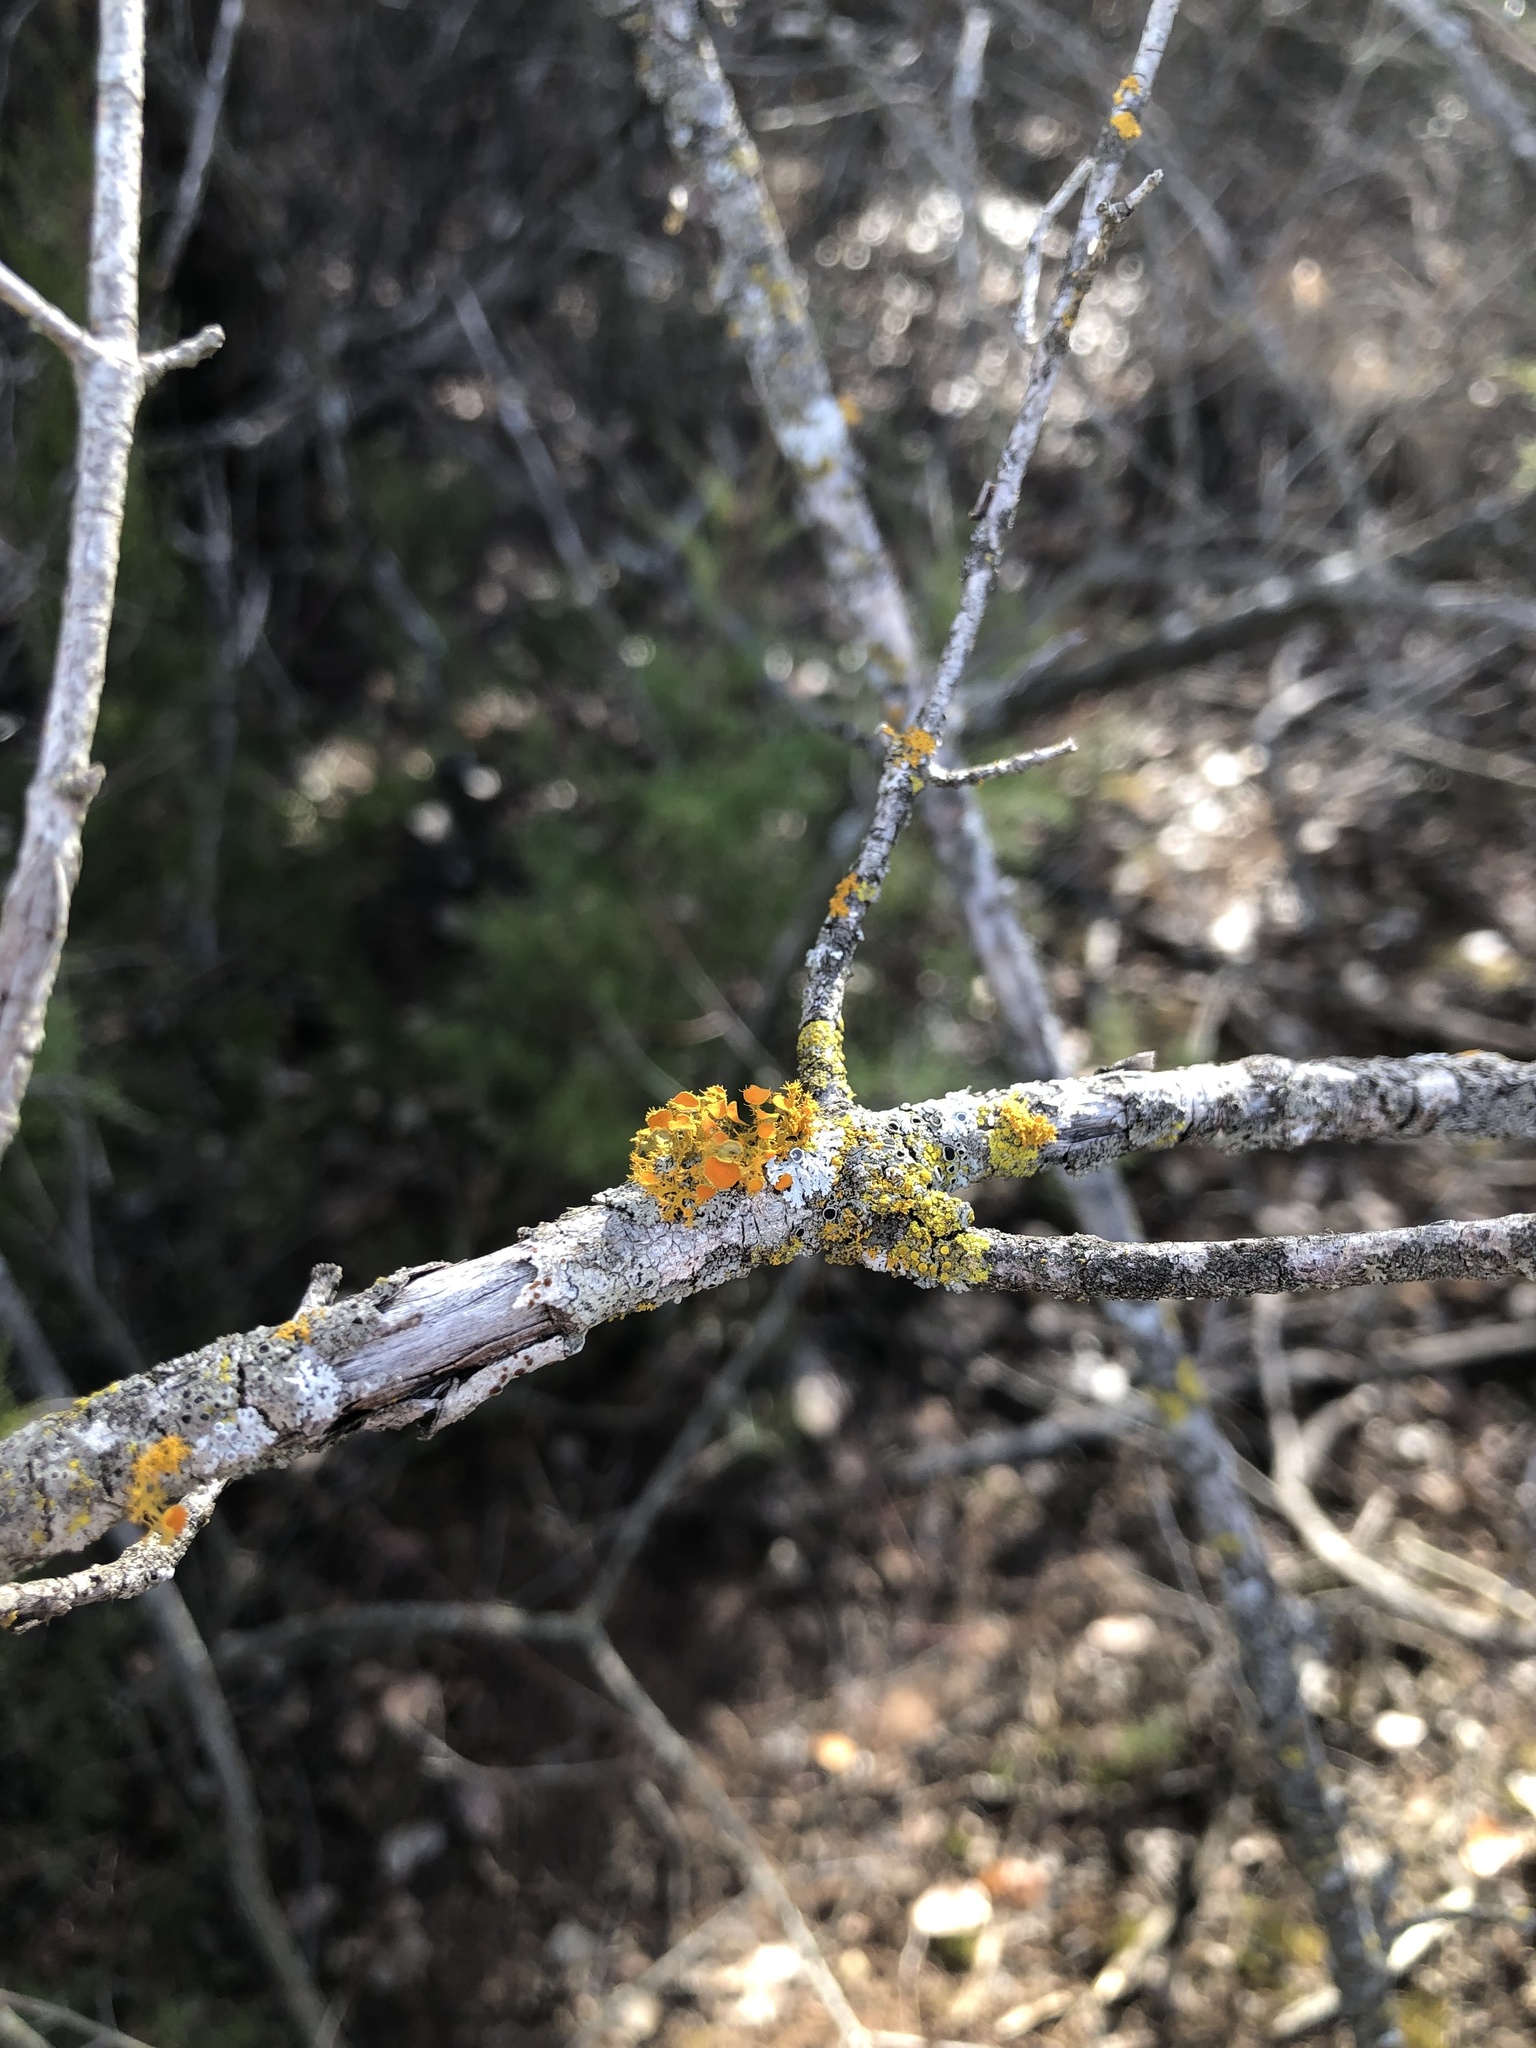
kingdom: Fungi
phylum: Ascomycota
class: Lecanoromycetes
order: Teloschistales
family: Teloschistaceae
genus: Niorma
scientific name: Niorma chrysophthalma
